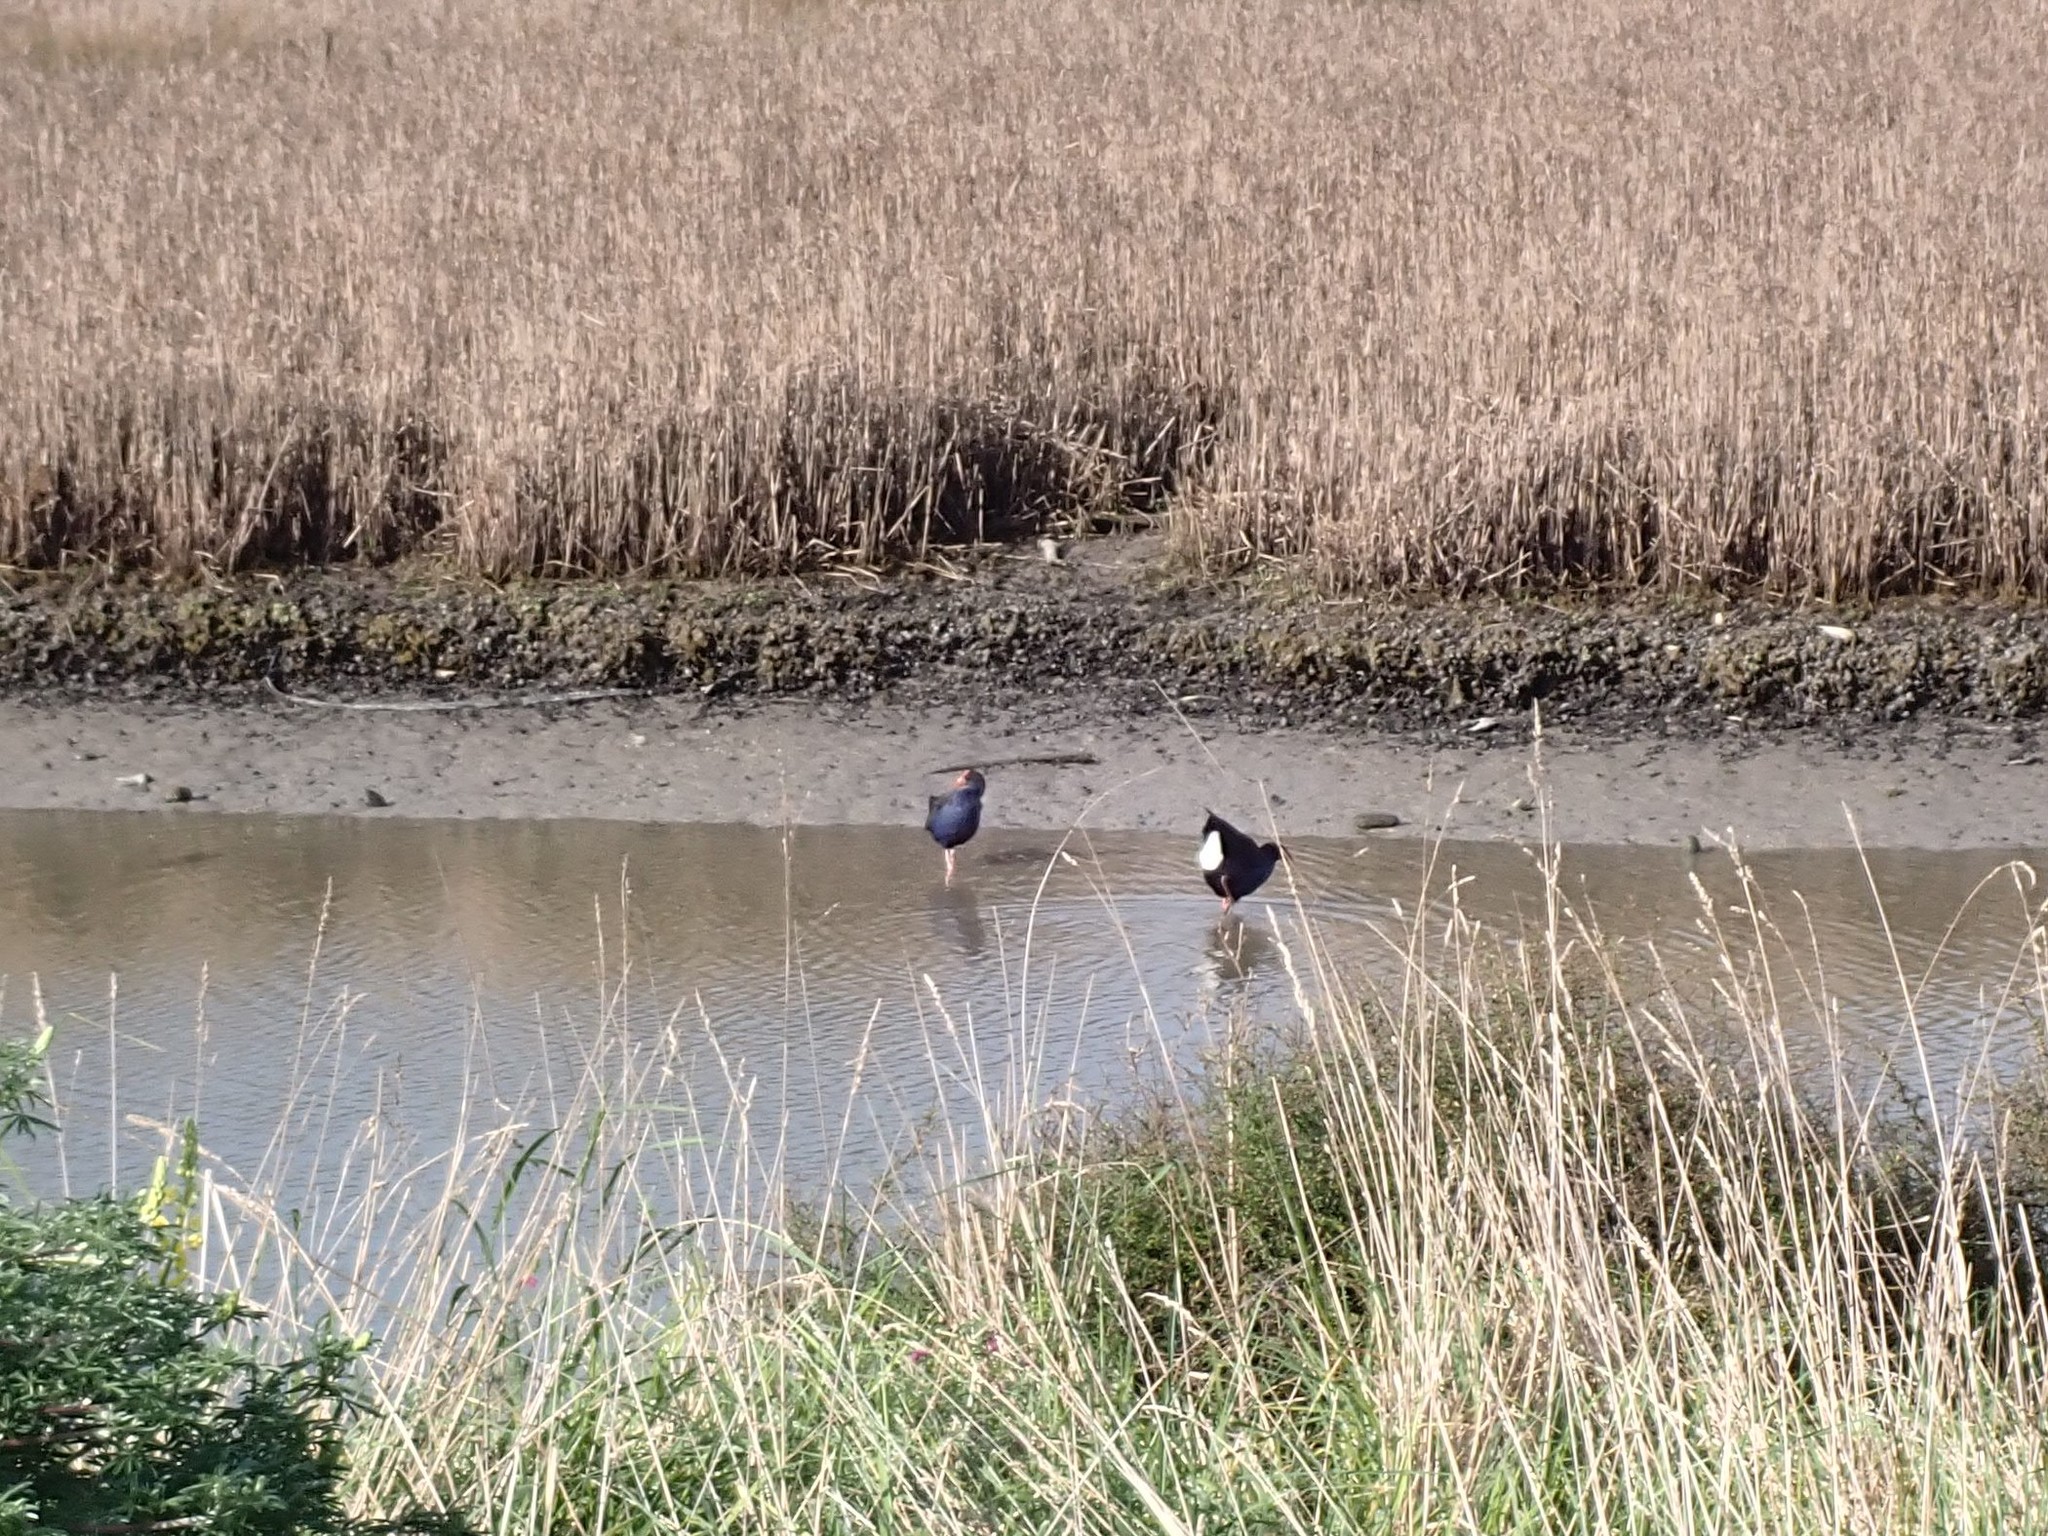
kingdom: Animalia
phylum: Chordata
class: Aves
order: Gruiformes
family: Rallidae
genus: Porphyrio
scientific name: Porphyrio melanotus
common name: Australasian swamphen
